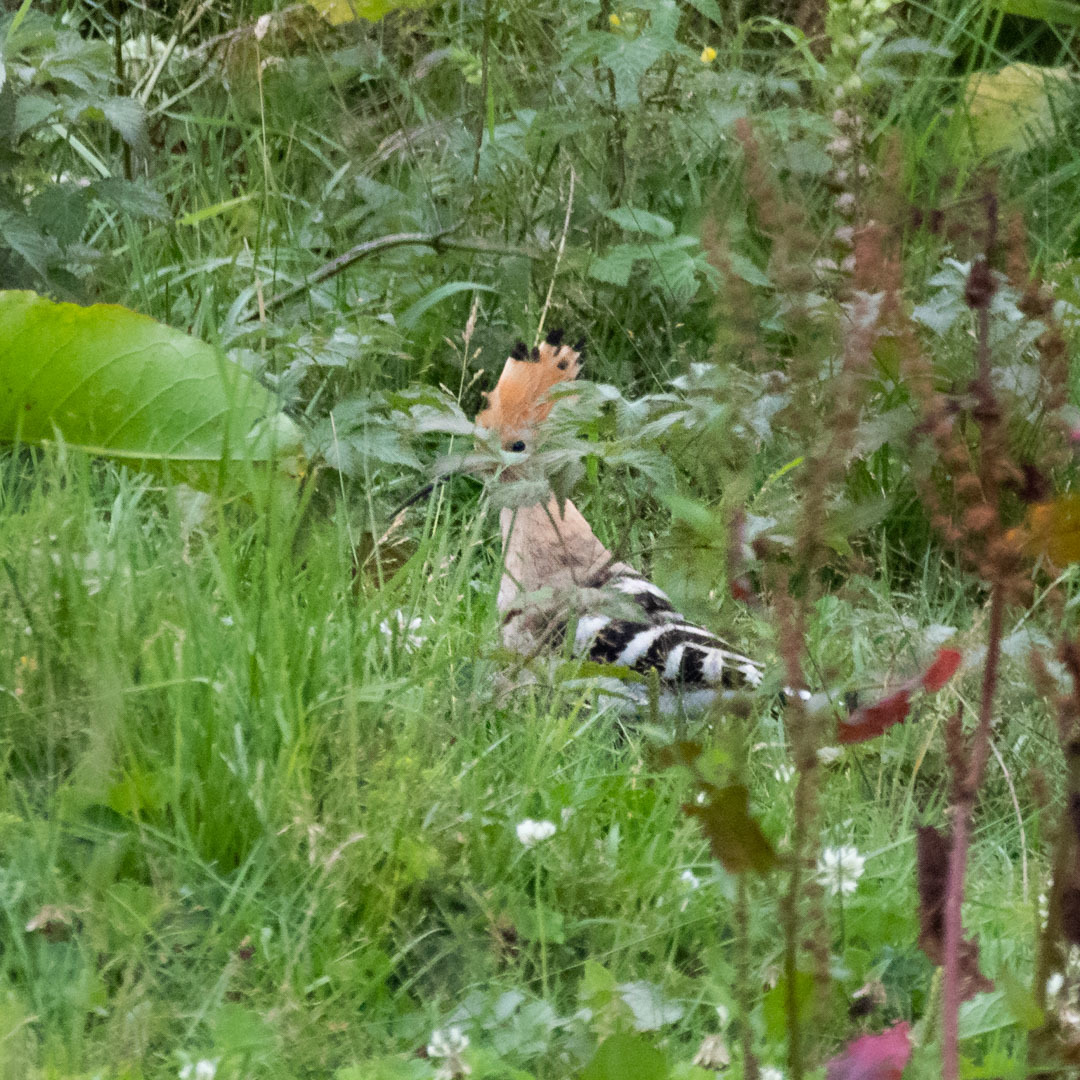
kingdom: Animalia
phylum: Chordata
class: Aves
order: Bucerotiformes
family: Upupidae
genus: Upupa
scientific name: Upupa epops
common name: Eurasian hoopoe
